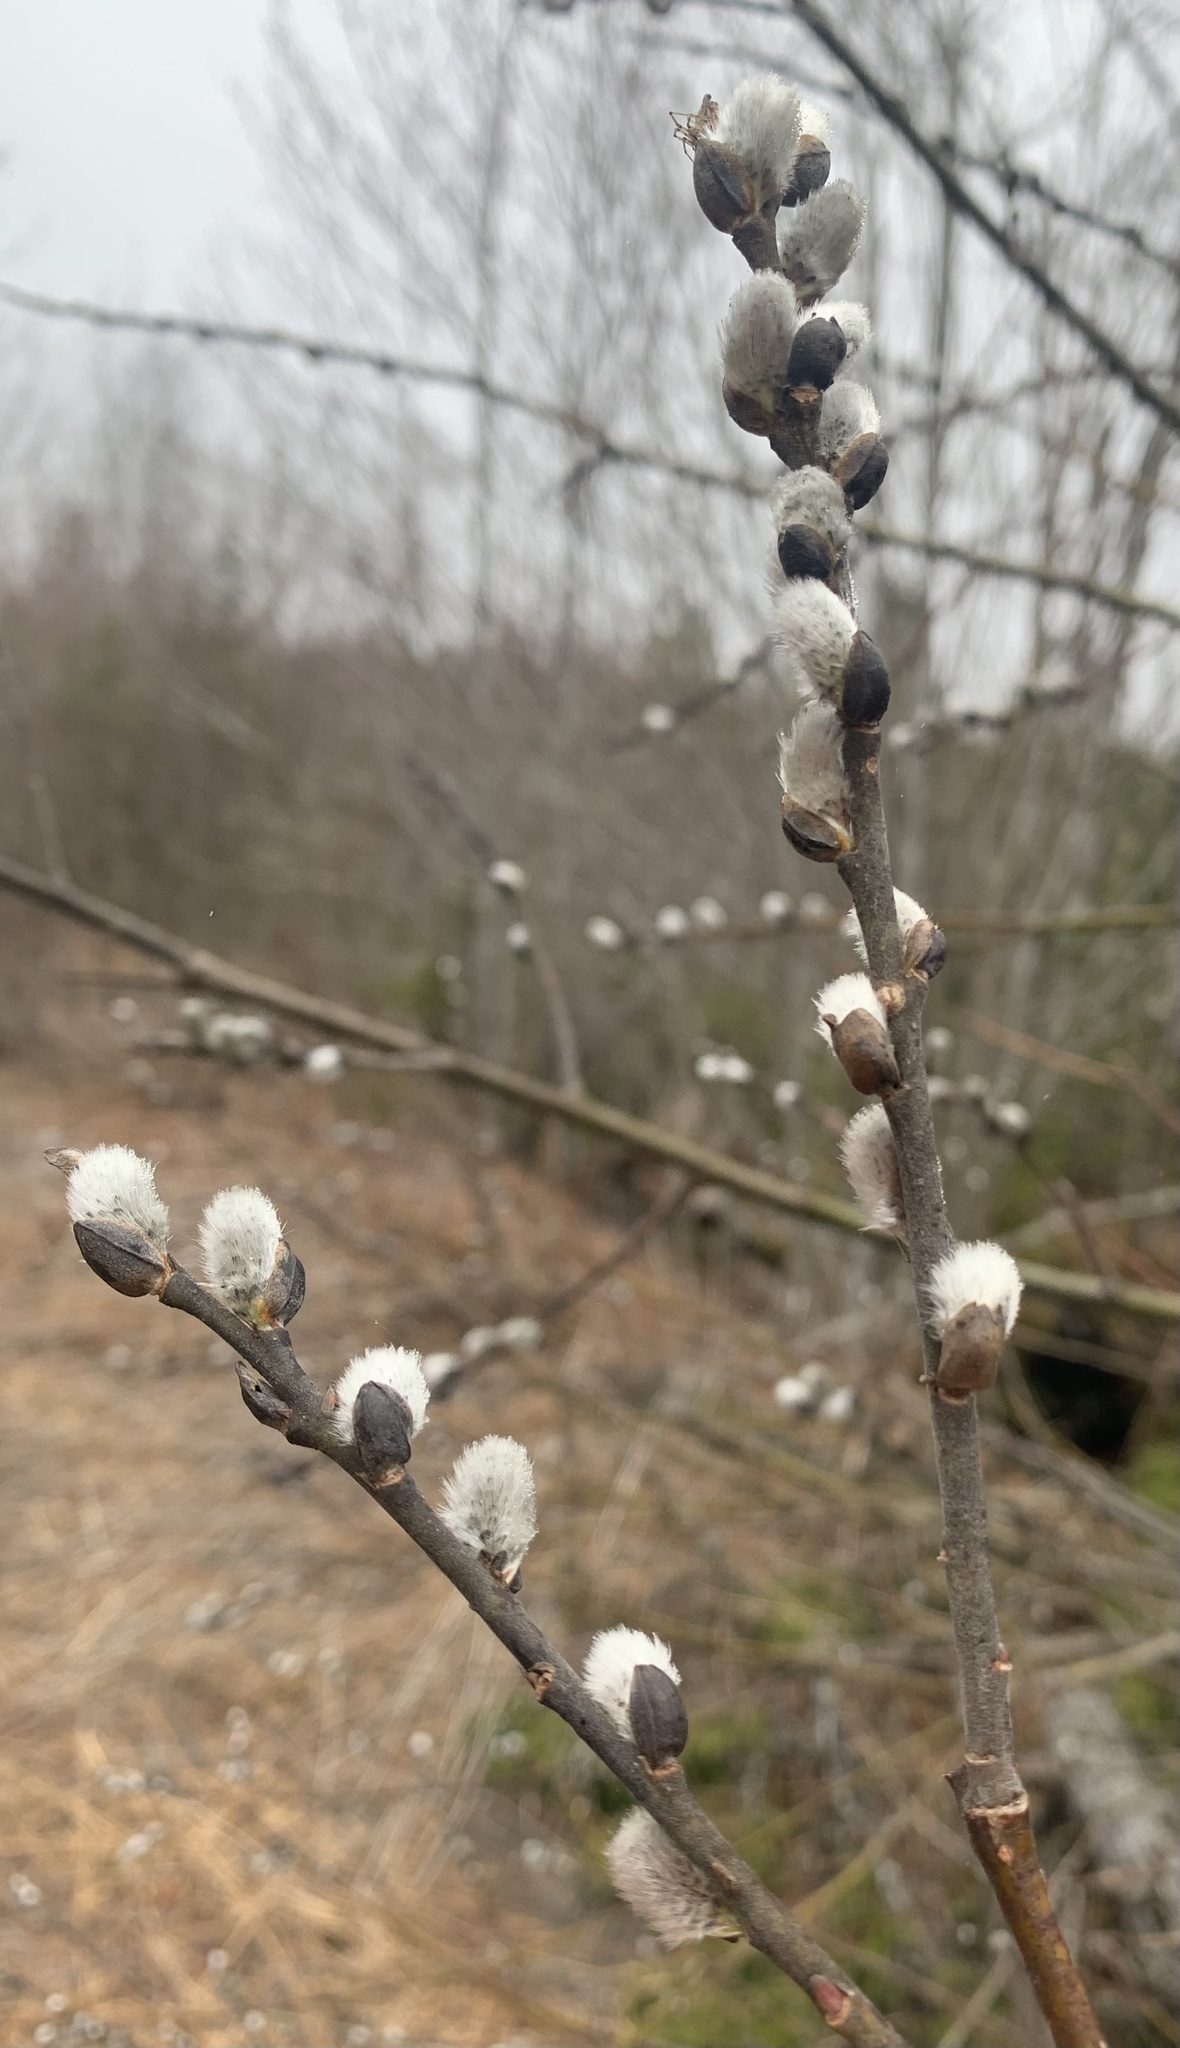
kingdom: Plantae
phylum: Tracheophyta
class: Magnoliopsida
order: Malpighiales
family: Salicaceae
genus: Salix
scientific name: Salix discolor
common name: Glaucous willow
